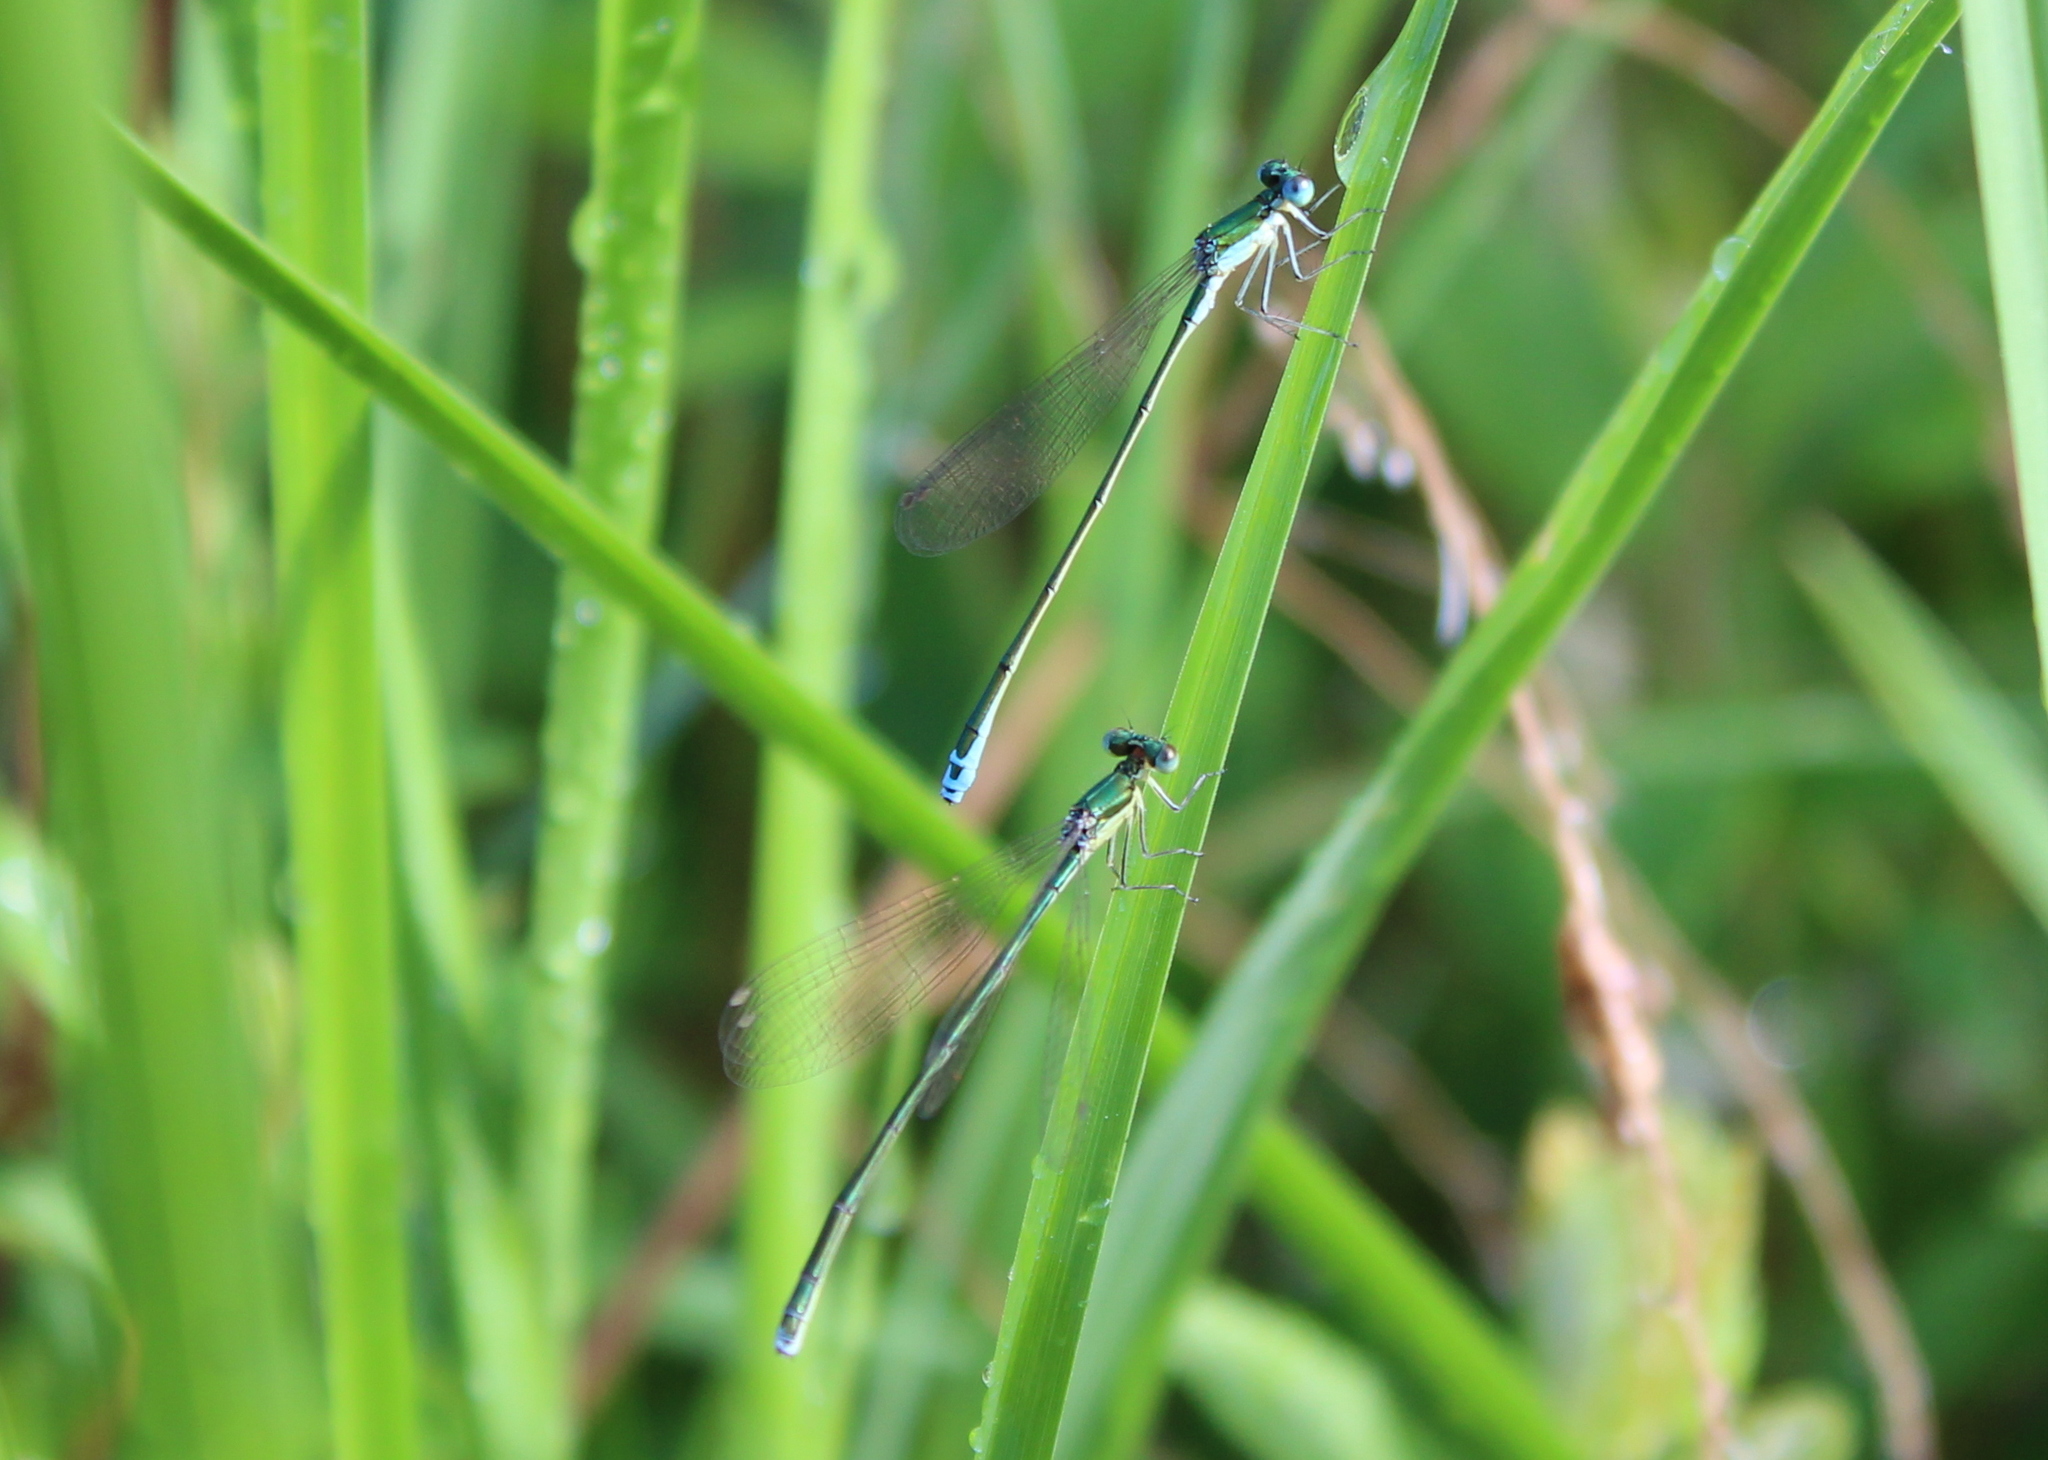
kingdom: Animalia
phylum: Arthropoda
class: Insecta
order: Odonata
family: Coenagrionidae
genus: Nehalennia
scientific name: Nehalennia irene
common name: Sedge sprite
